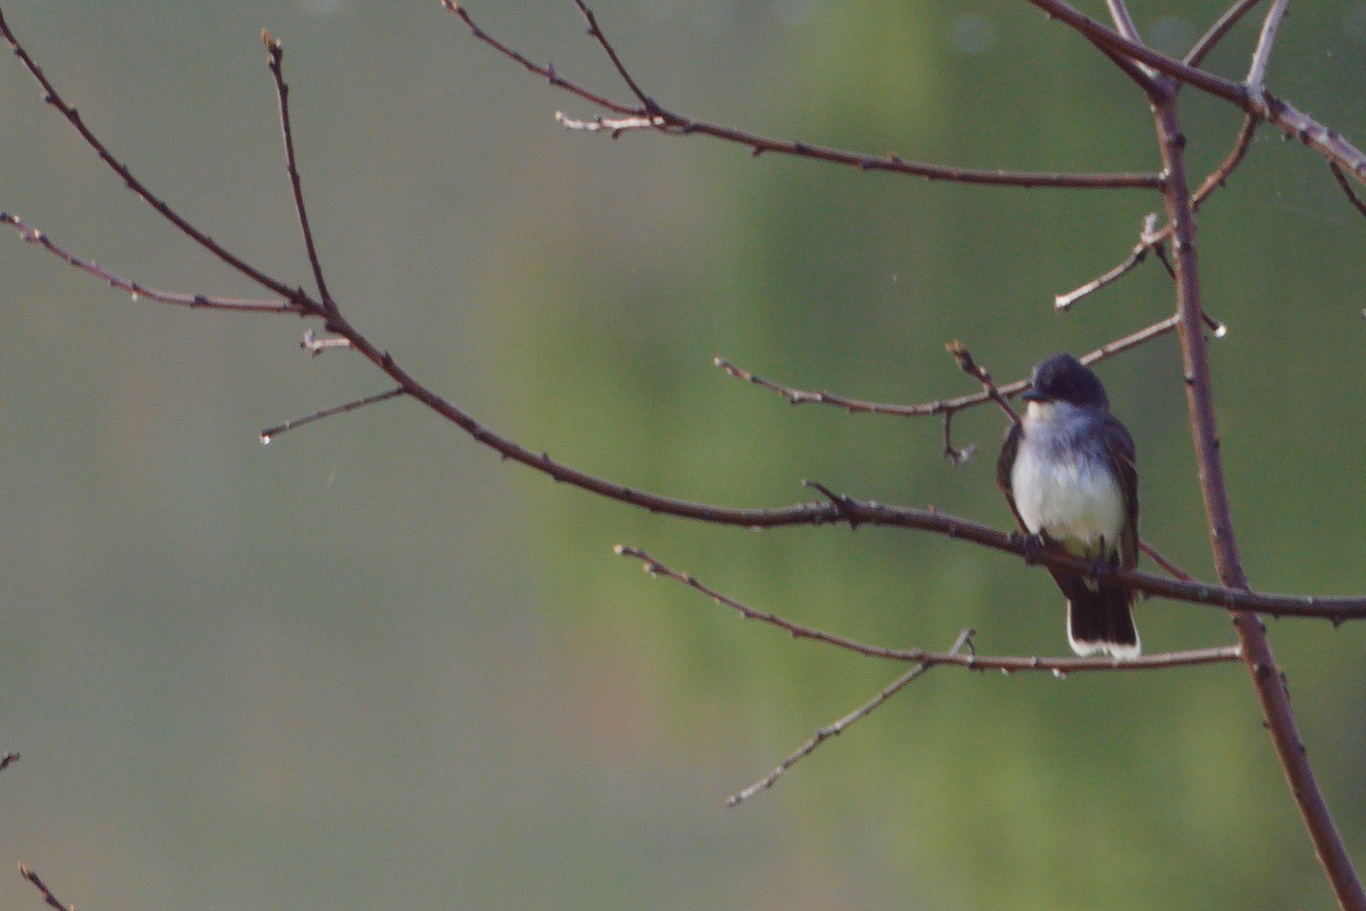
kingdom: Animalia
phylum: Chordata
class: Aves
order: Passeriformes
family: Tyrannidae
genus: Tyrannus
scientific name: Tyrannus tyrannus
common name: Eastern kingbird
